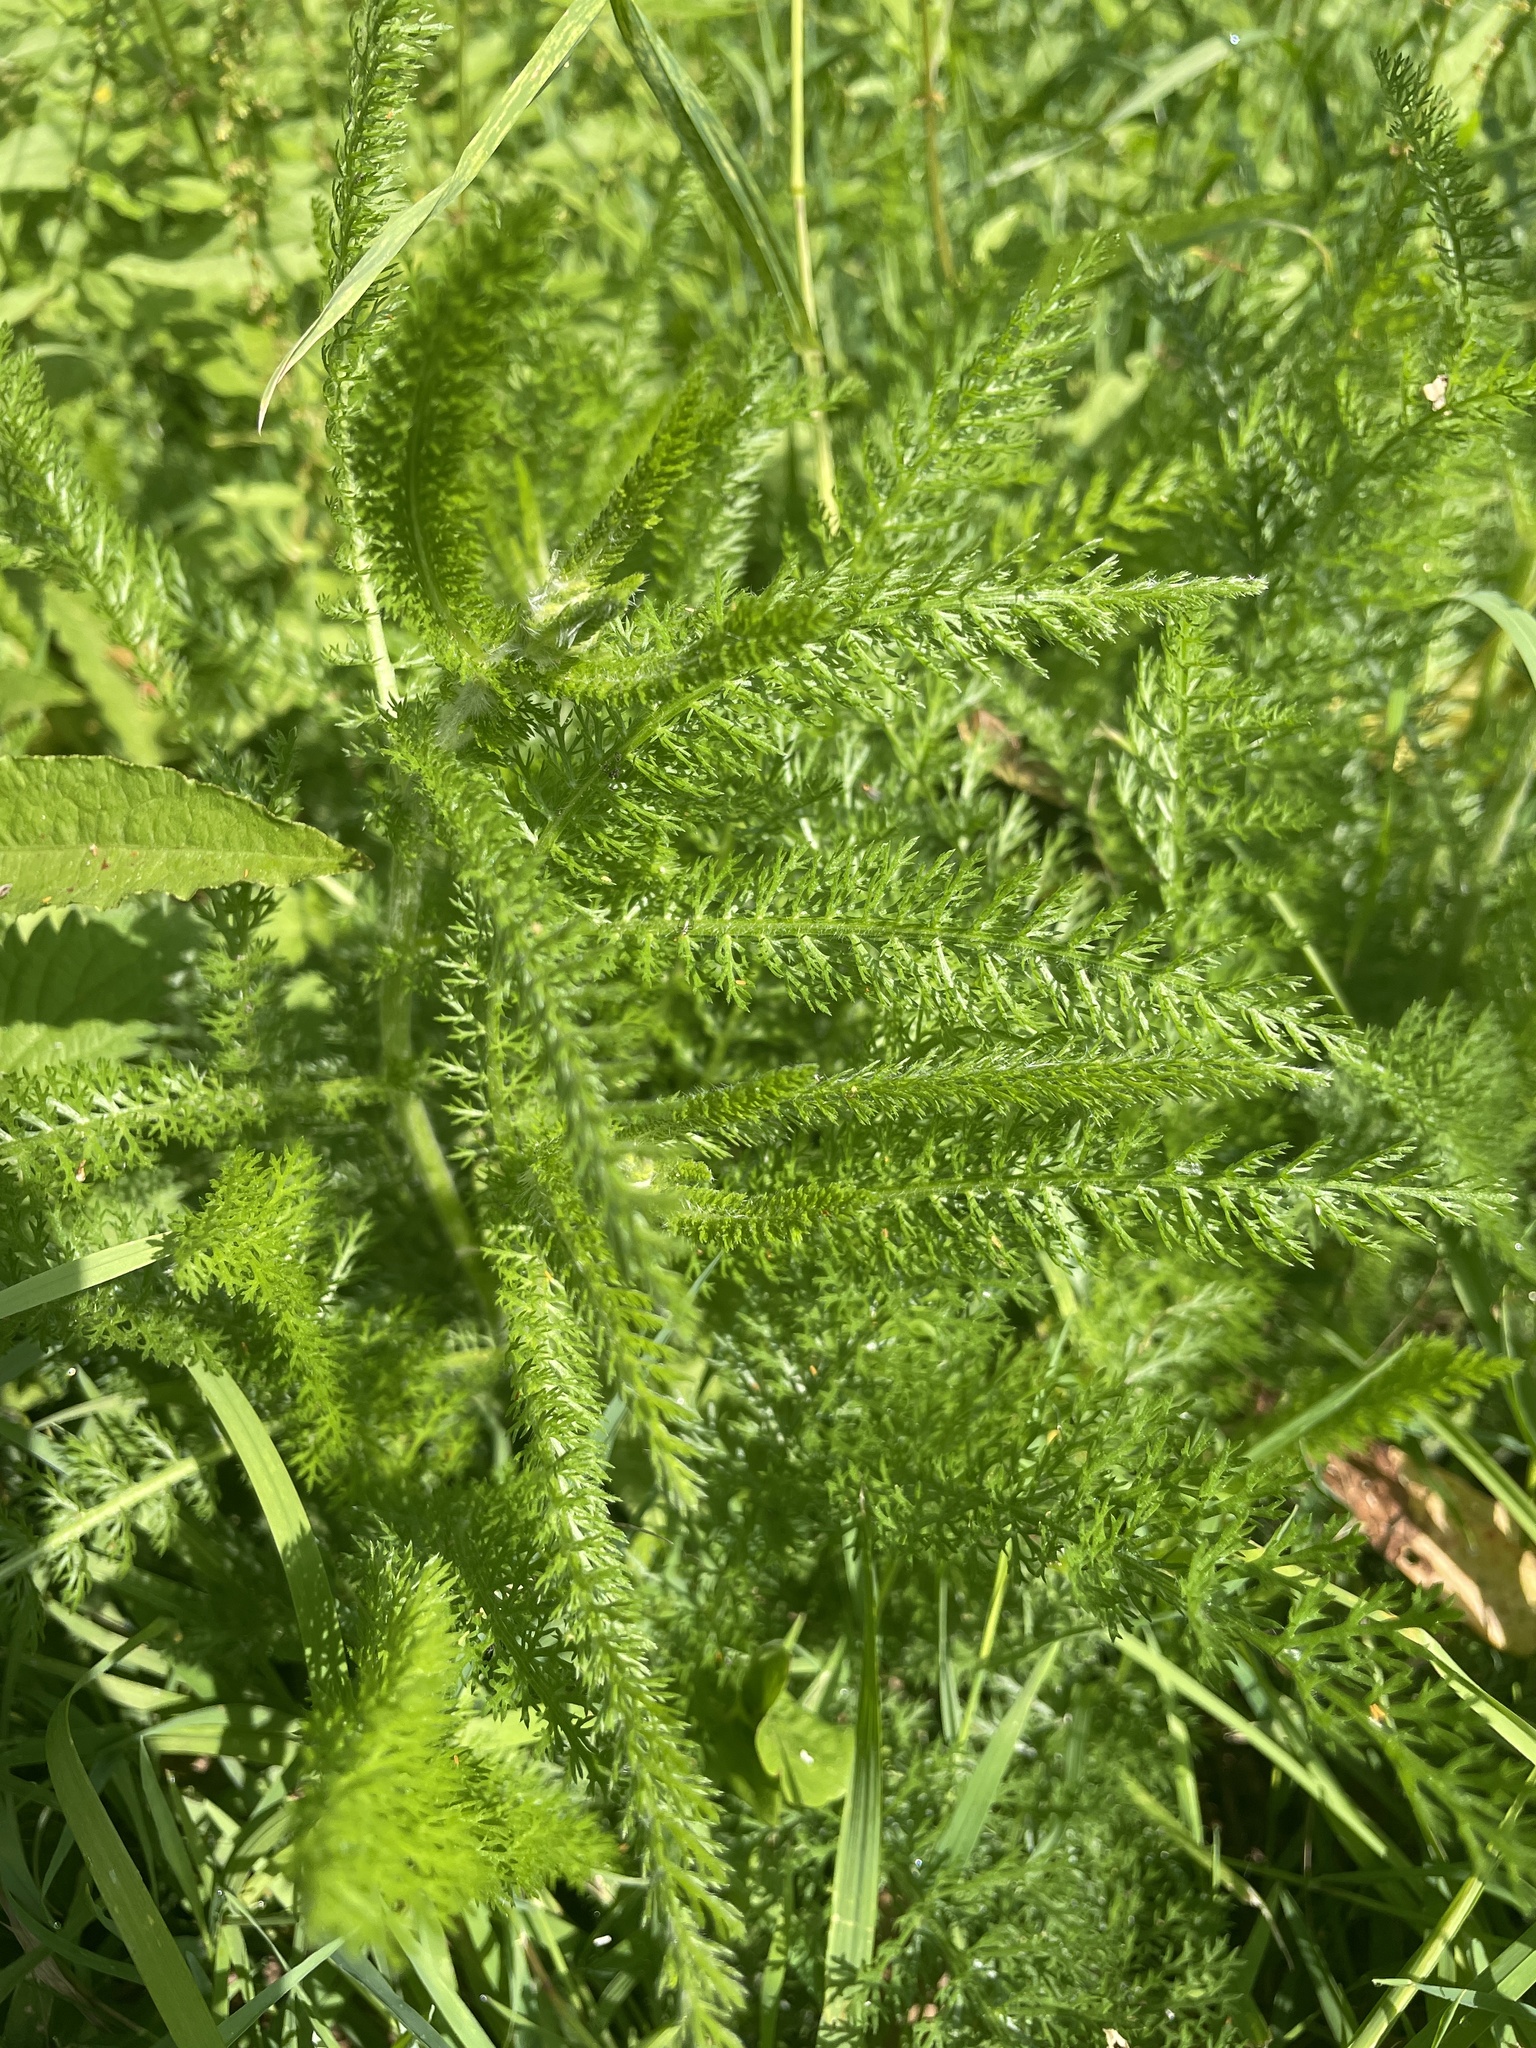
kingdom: Plantae
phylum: Tracheophyta
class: Magnoliopsida
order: Asterales
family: Asteraceae
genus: Achillea
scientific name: Achillea millefolium
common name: Yarrow
